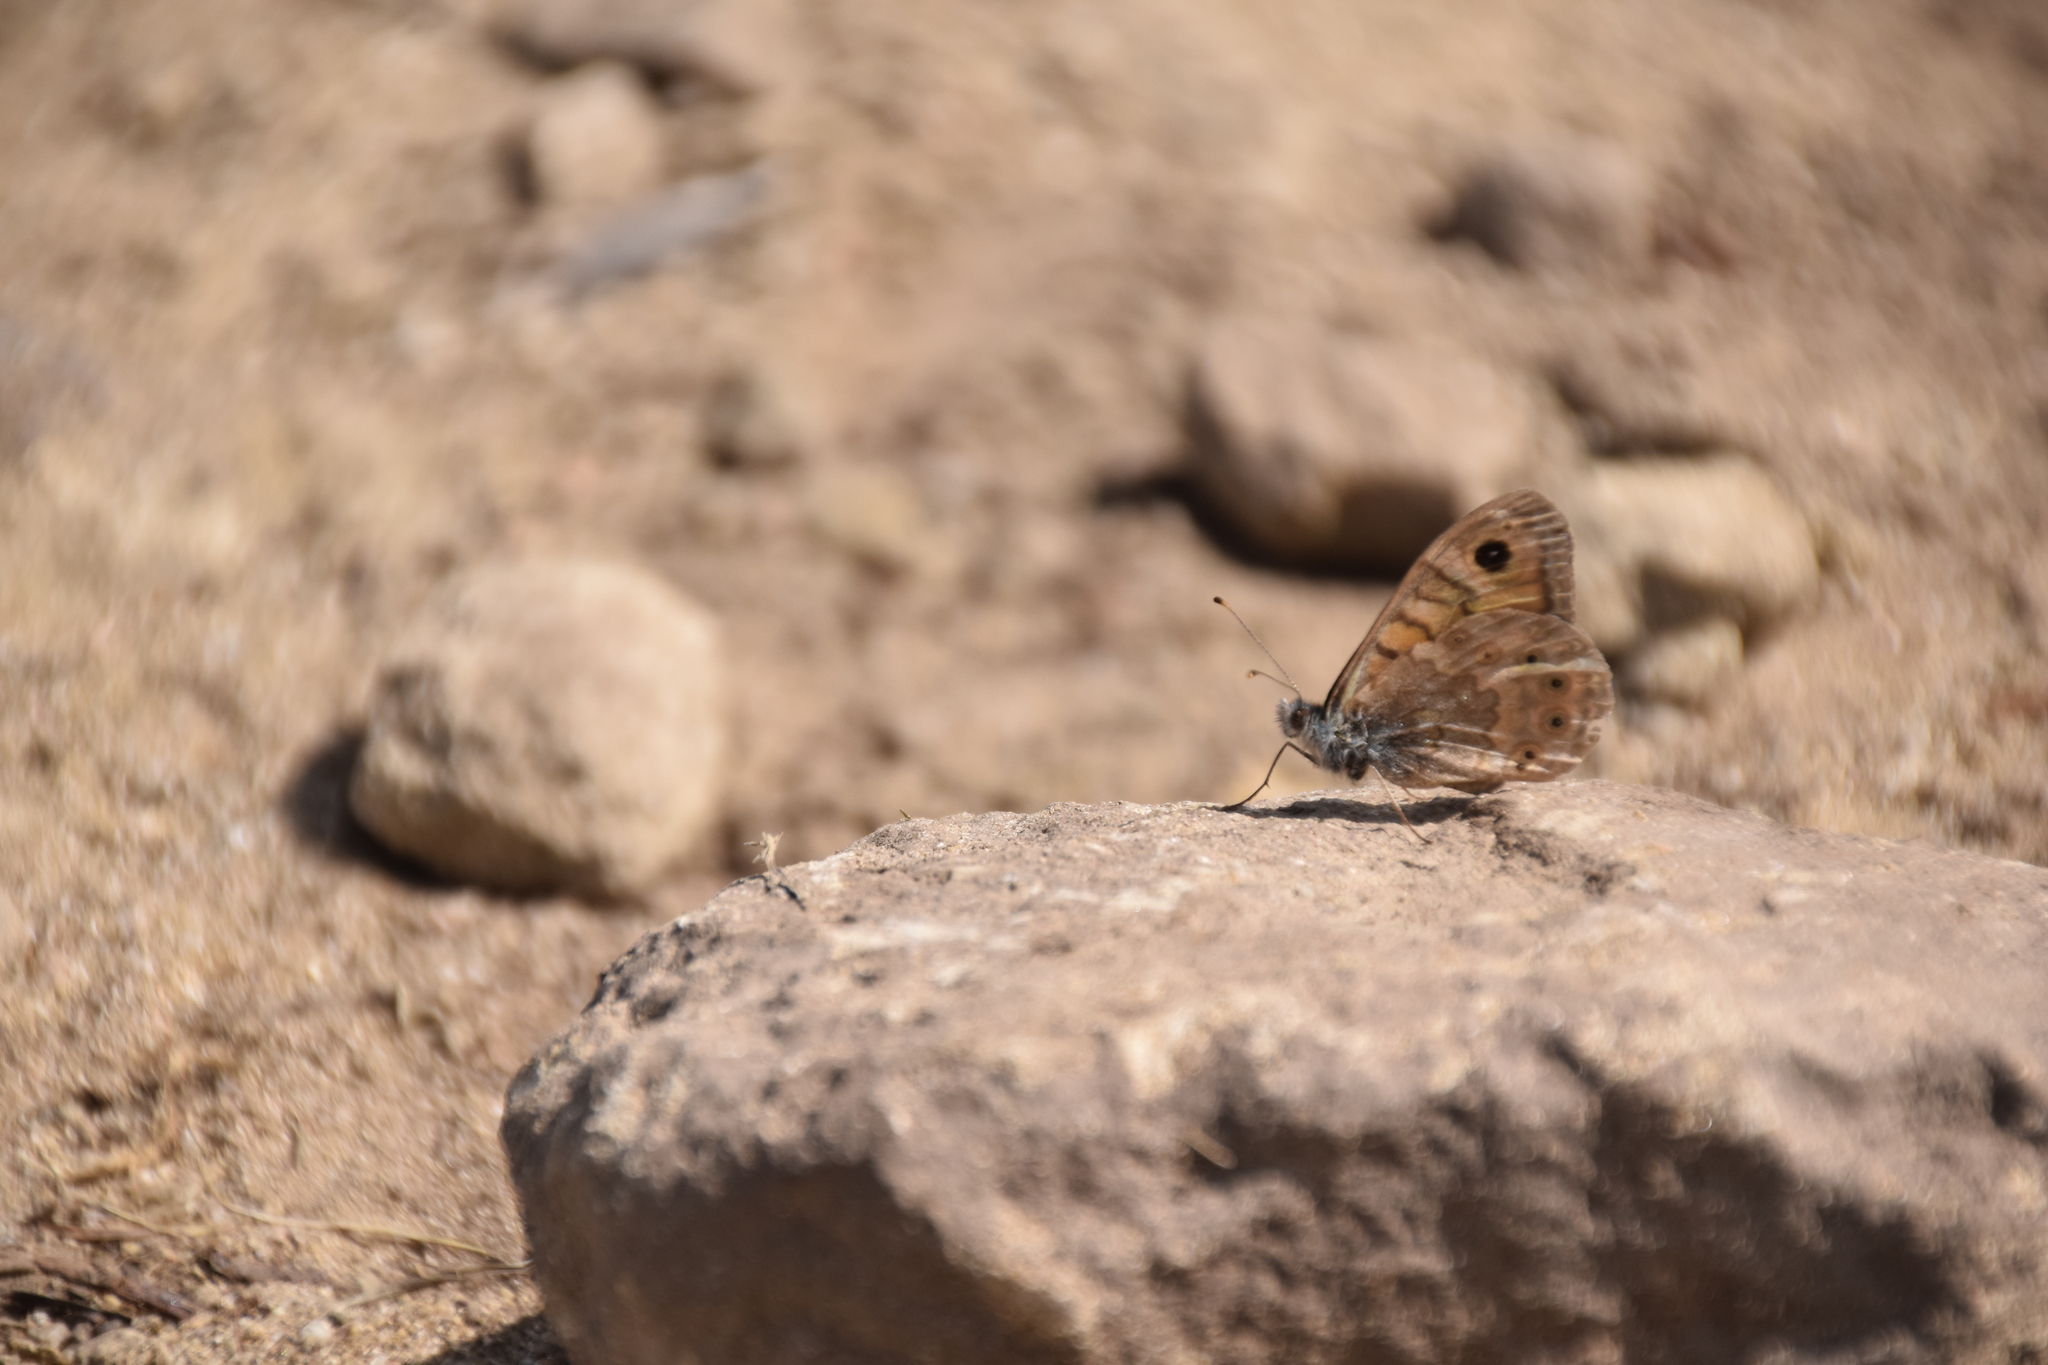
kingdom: Animalia
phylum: Arthropoda
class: Insecta
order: Lepidoptera
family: Nymphalidae
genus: Pararge
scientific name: Pararge Lasiommata megera
